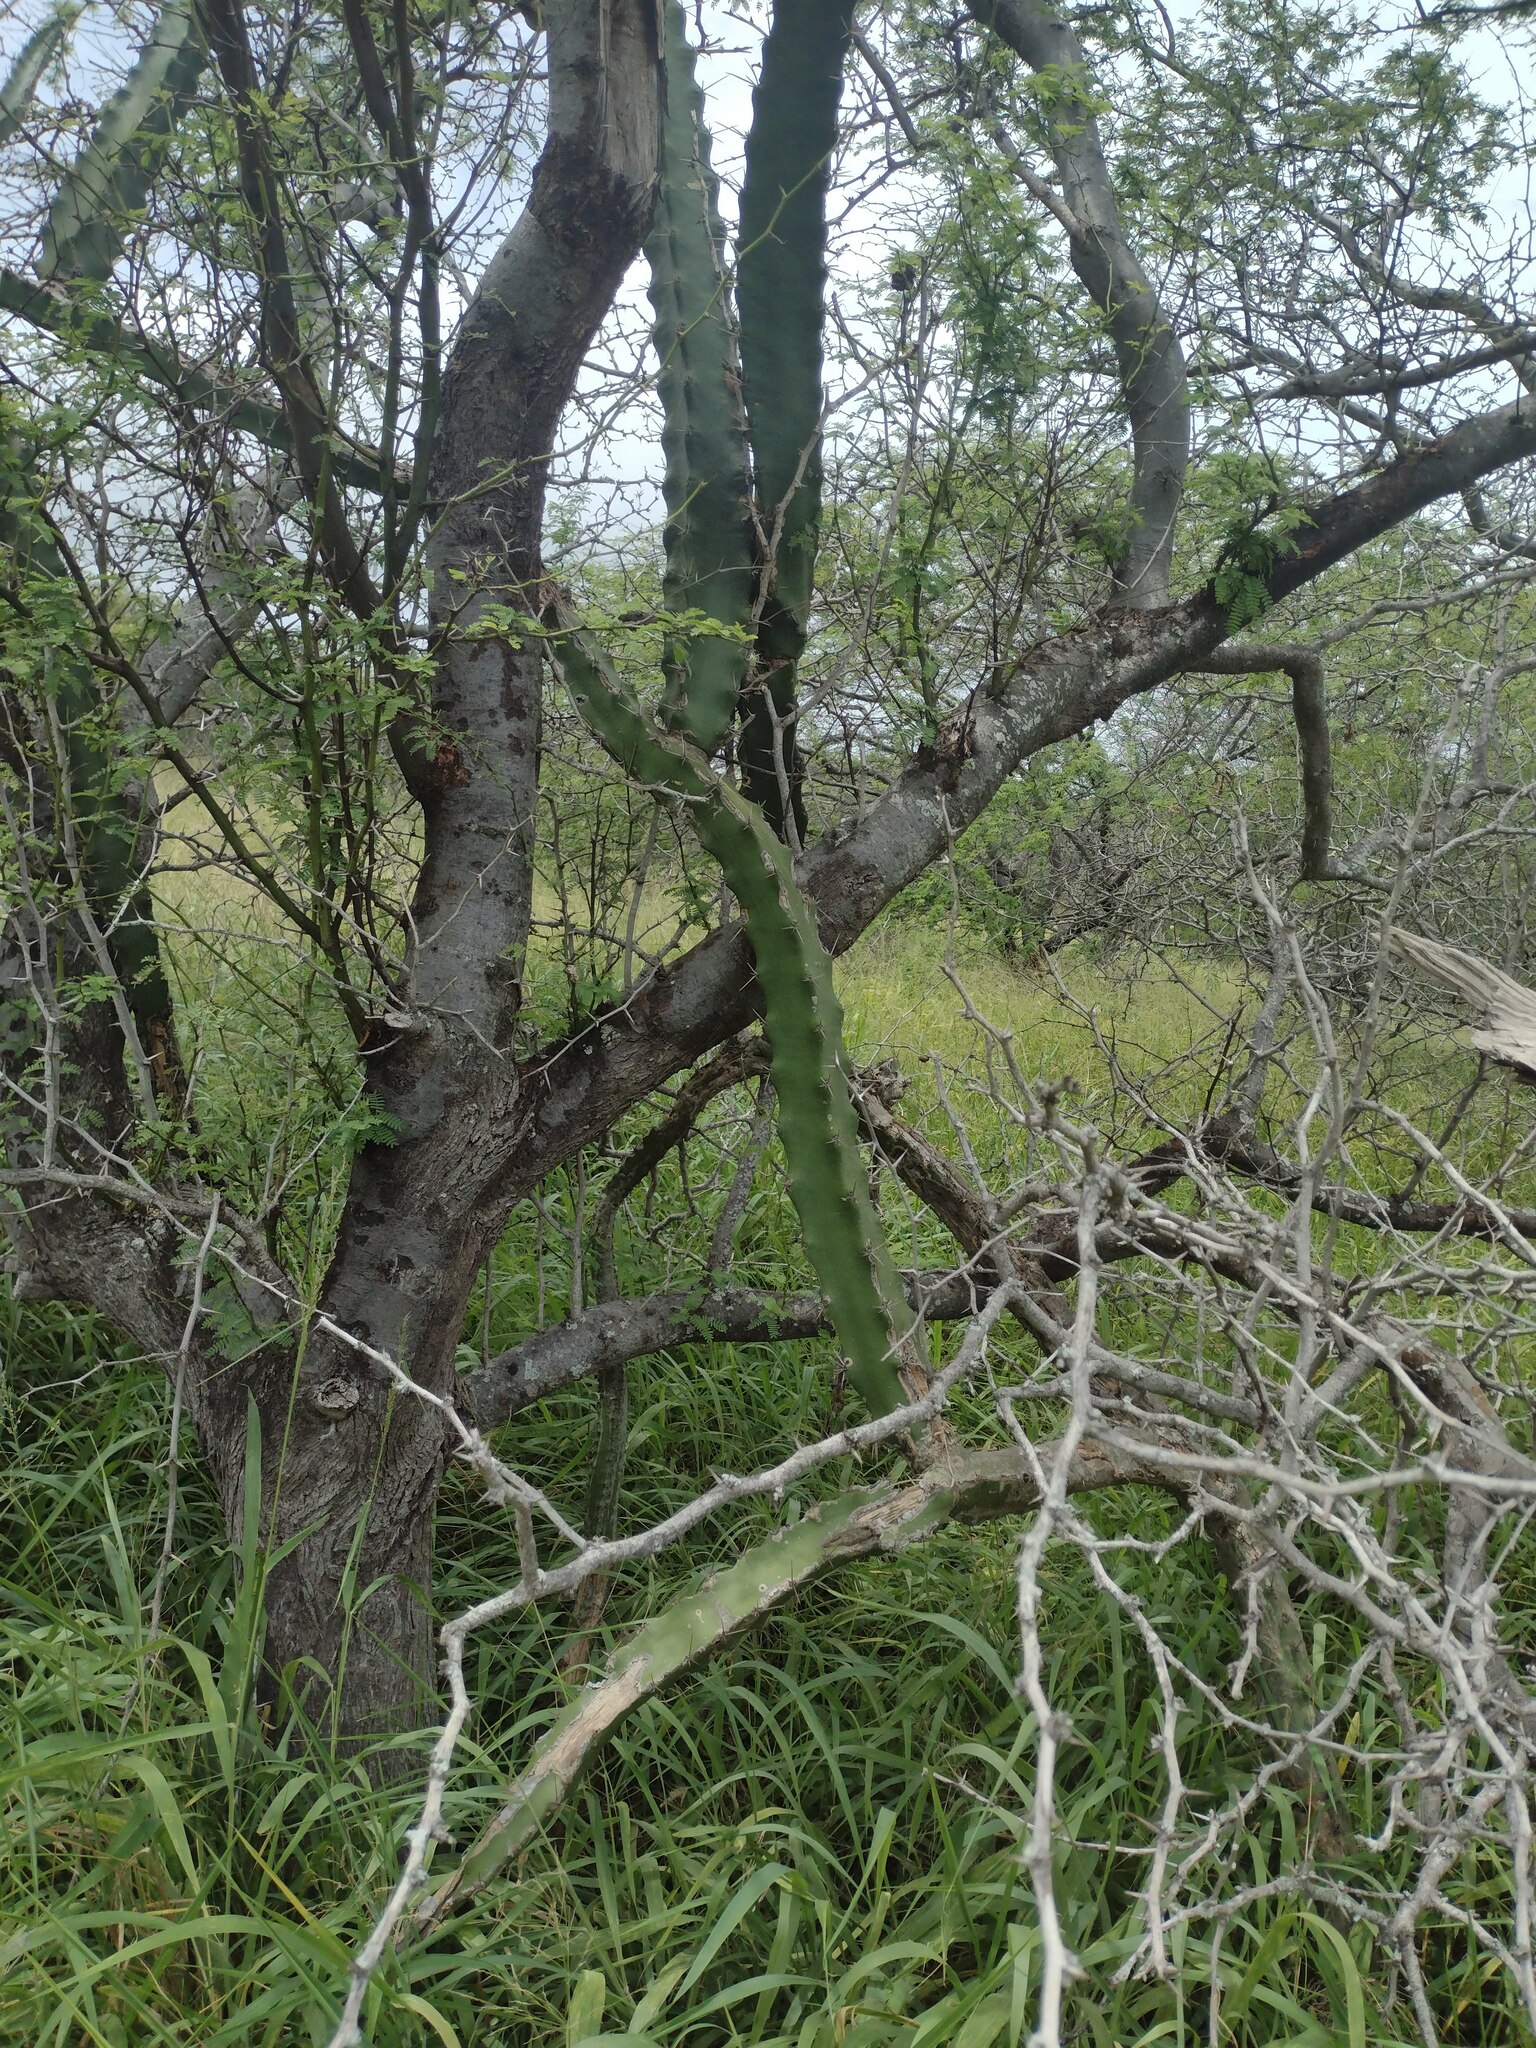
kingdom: Plantae
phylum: Tracheophyta
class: Magnoliopsida
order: Caryophyllales
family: Cactaceae
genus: Cereus
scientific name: Cereus hildmannianus
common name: Hedge cactus
